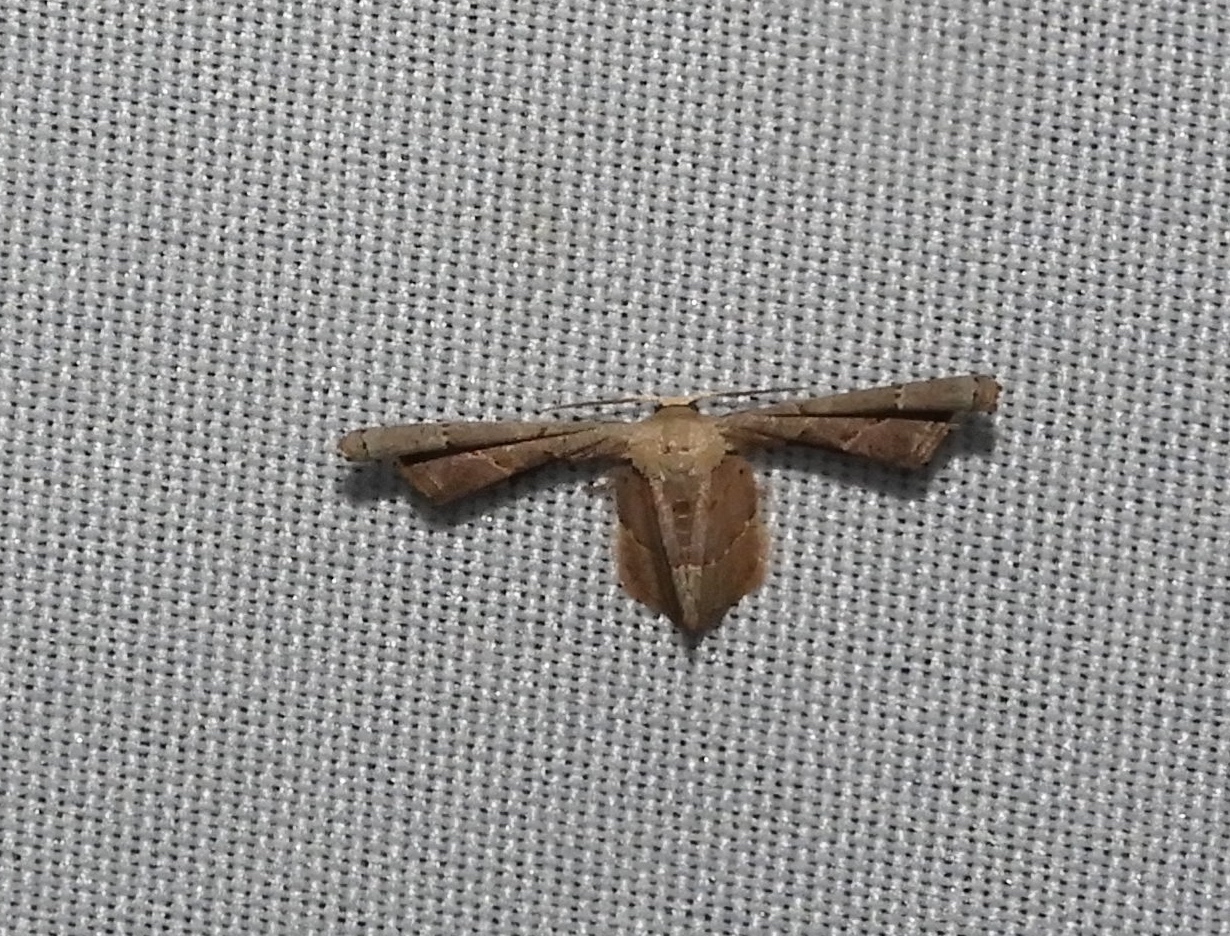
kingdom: Animalia
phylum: Arthropoda
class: Insecta
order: Lepidoptera
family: Uraniidae
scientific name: Uraniidae
